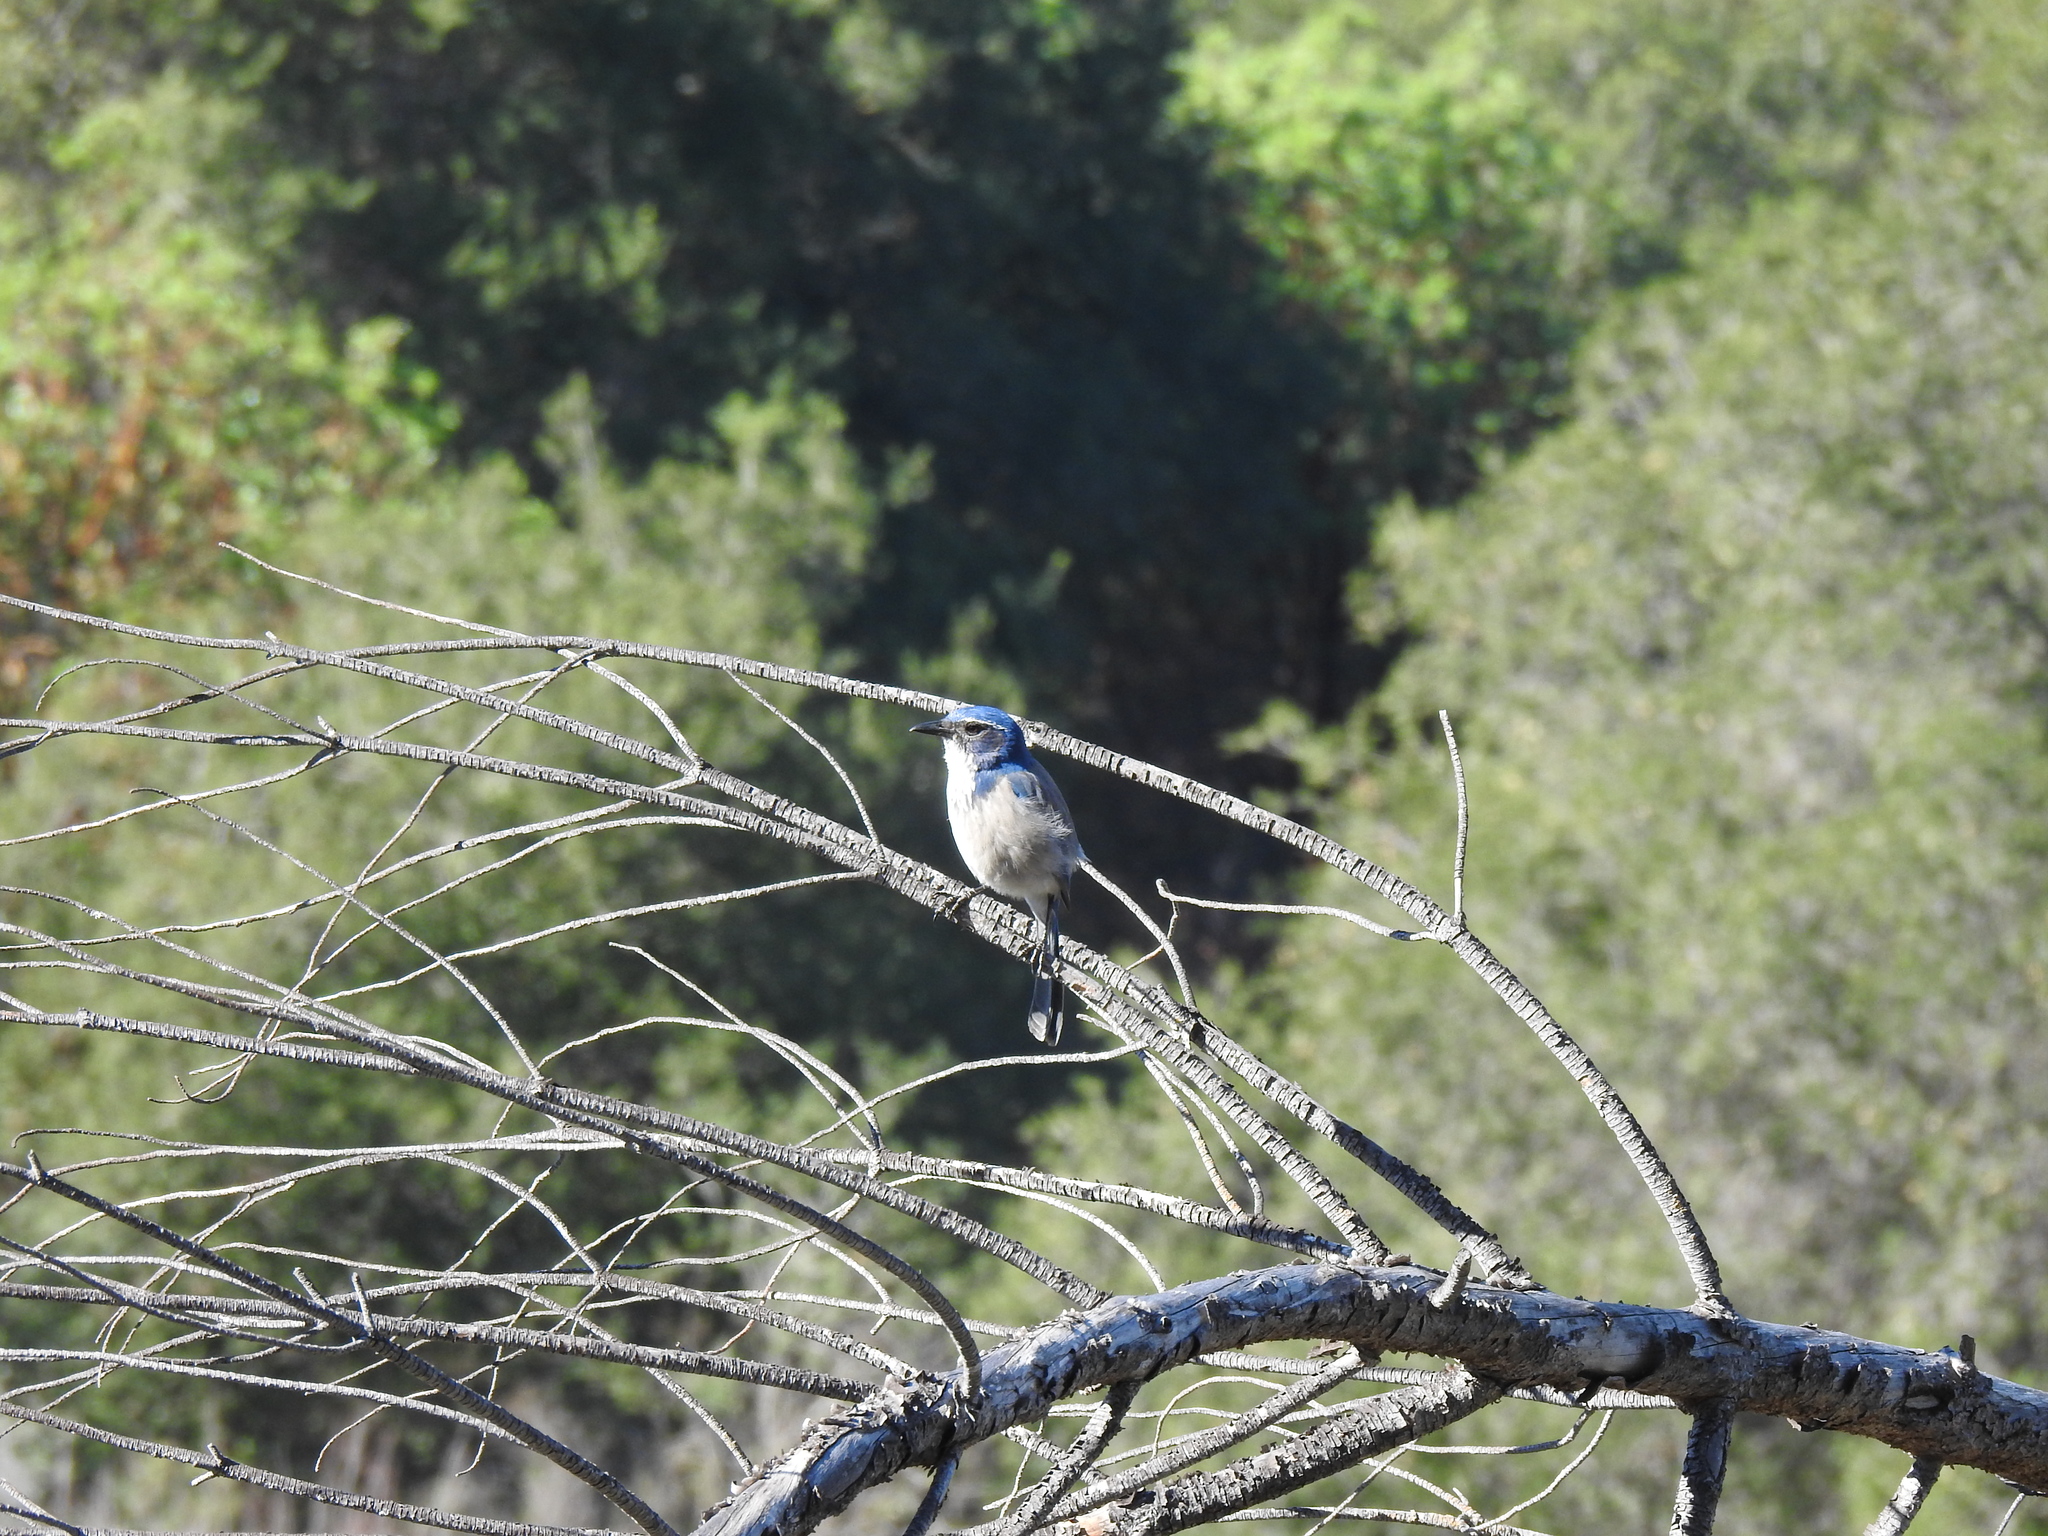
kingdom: Animalia
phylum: Chordata
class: Aves
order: Passeriformes
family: Corvidae
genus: Aphelocoma
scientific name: Aphelocoma californica
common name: California scrub-jay
